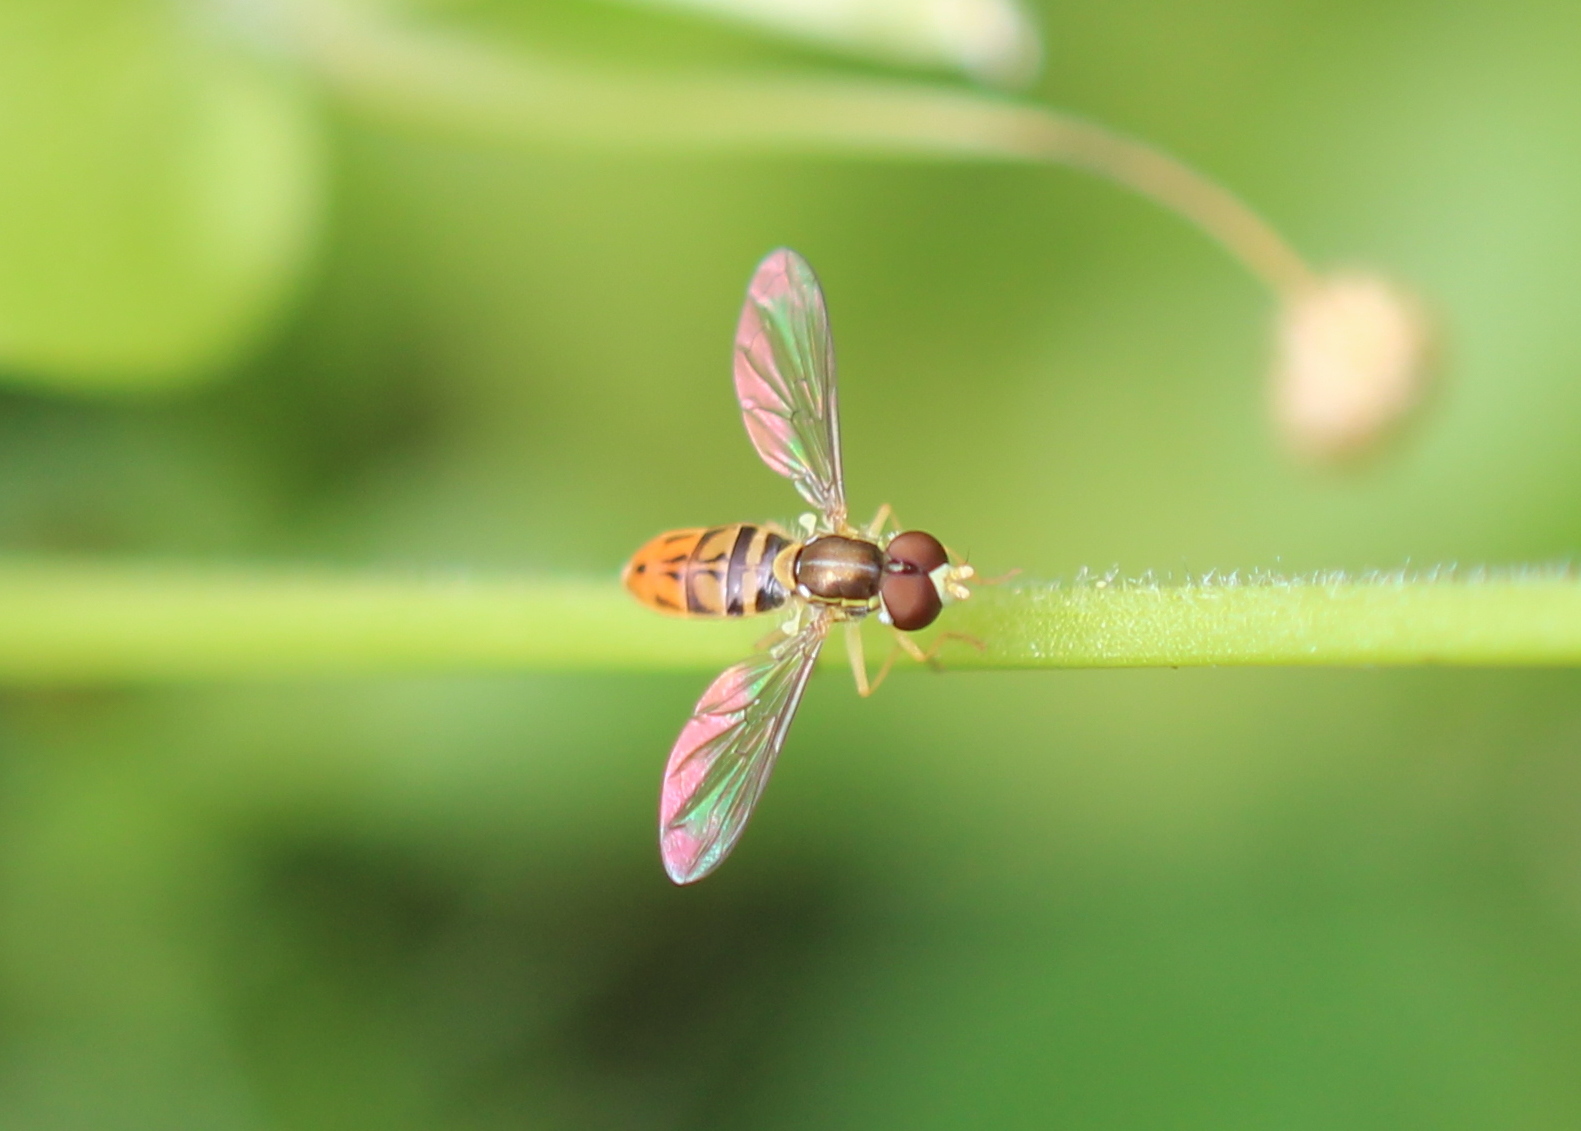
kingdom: Animalia
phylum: Arthropoda
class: Insecta
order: Diptera
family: Syrphidae
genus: Toxomerus
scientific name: Toxomerus marginatus
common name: Syrphid fly
